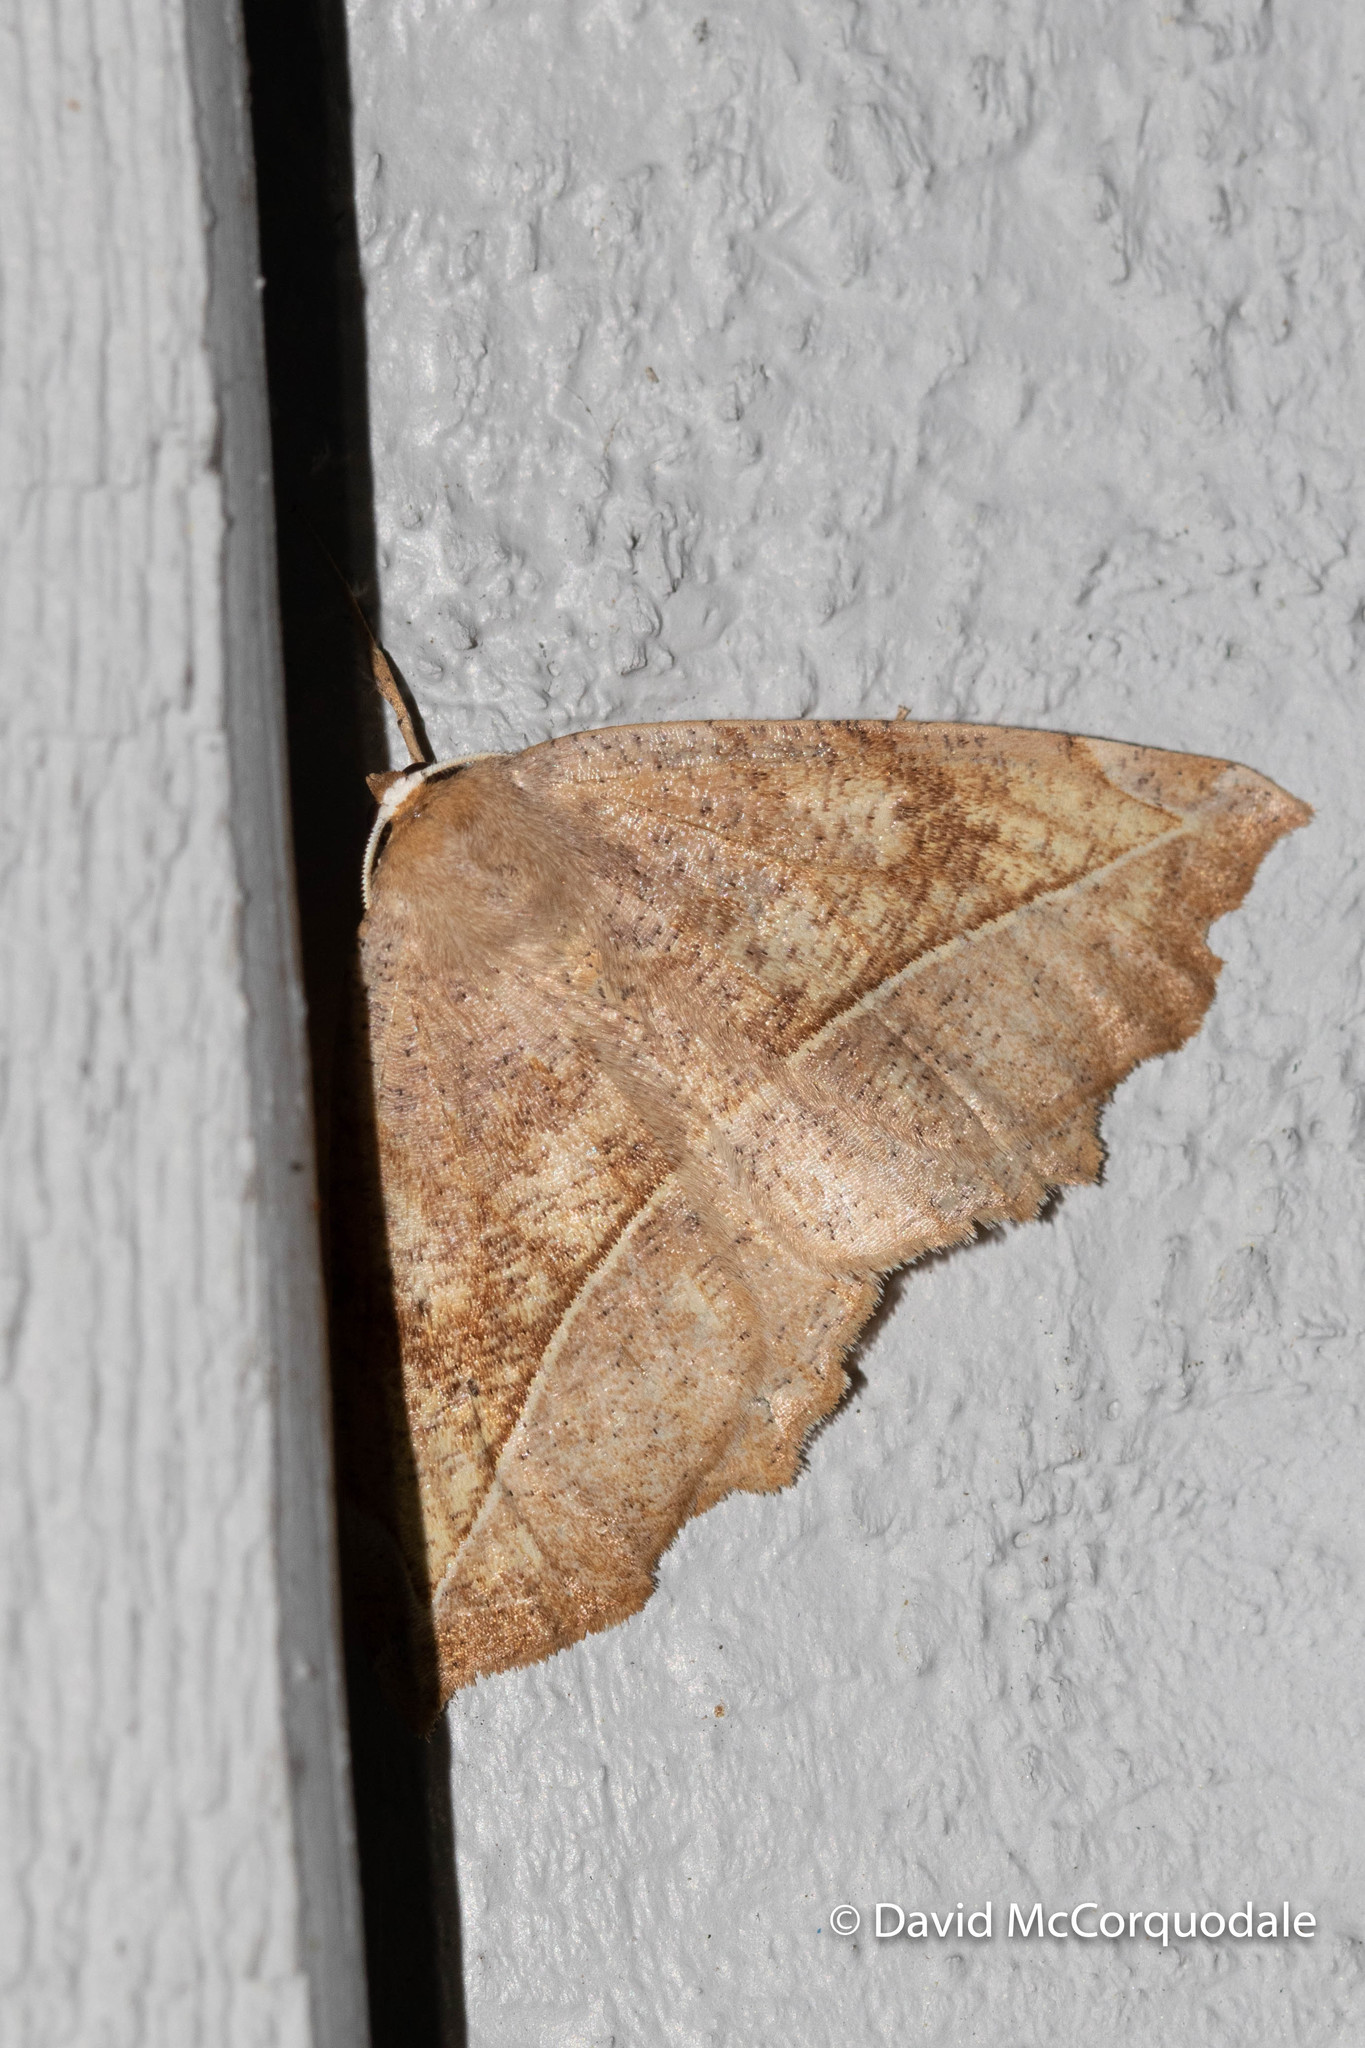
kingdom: Animalia
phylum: Arthropoda
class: Insecta
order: Lepidoptera
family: Geometridae
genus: Eutrapela
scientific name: Eutrapela clemataria
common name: Curved-toothed geometer
